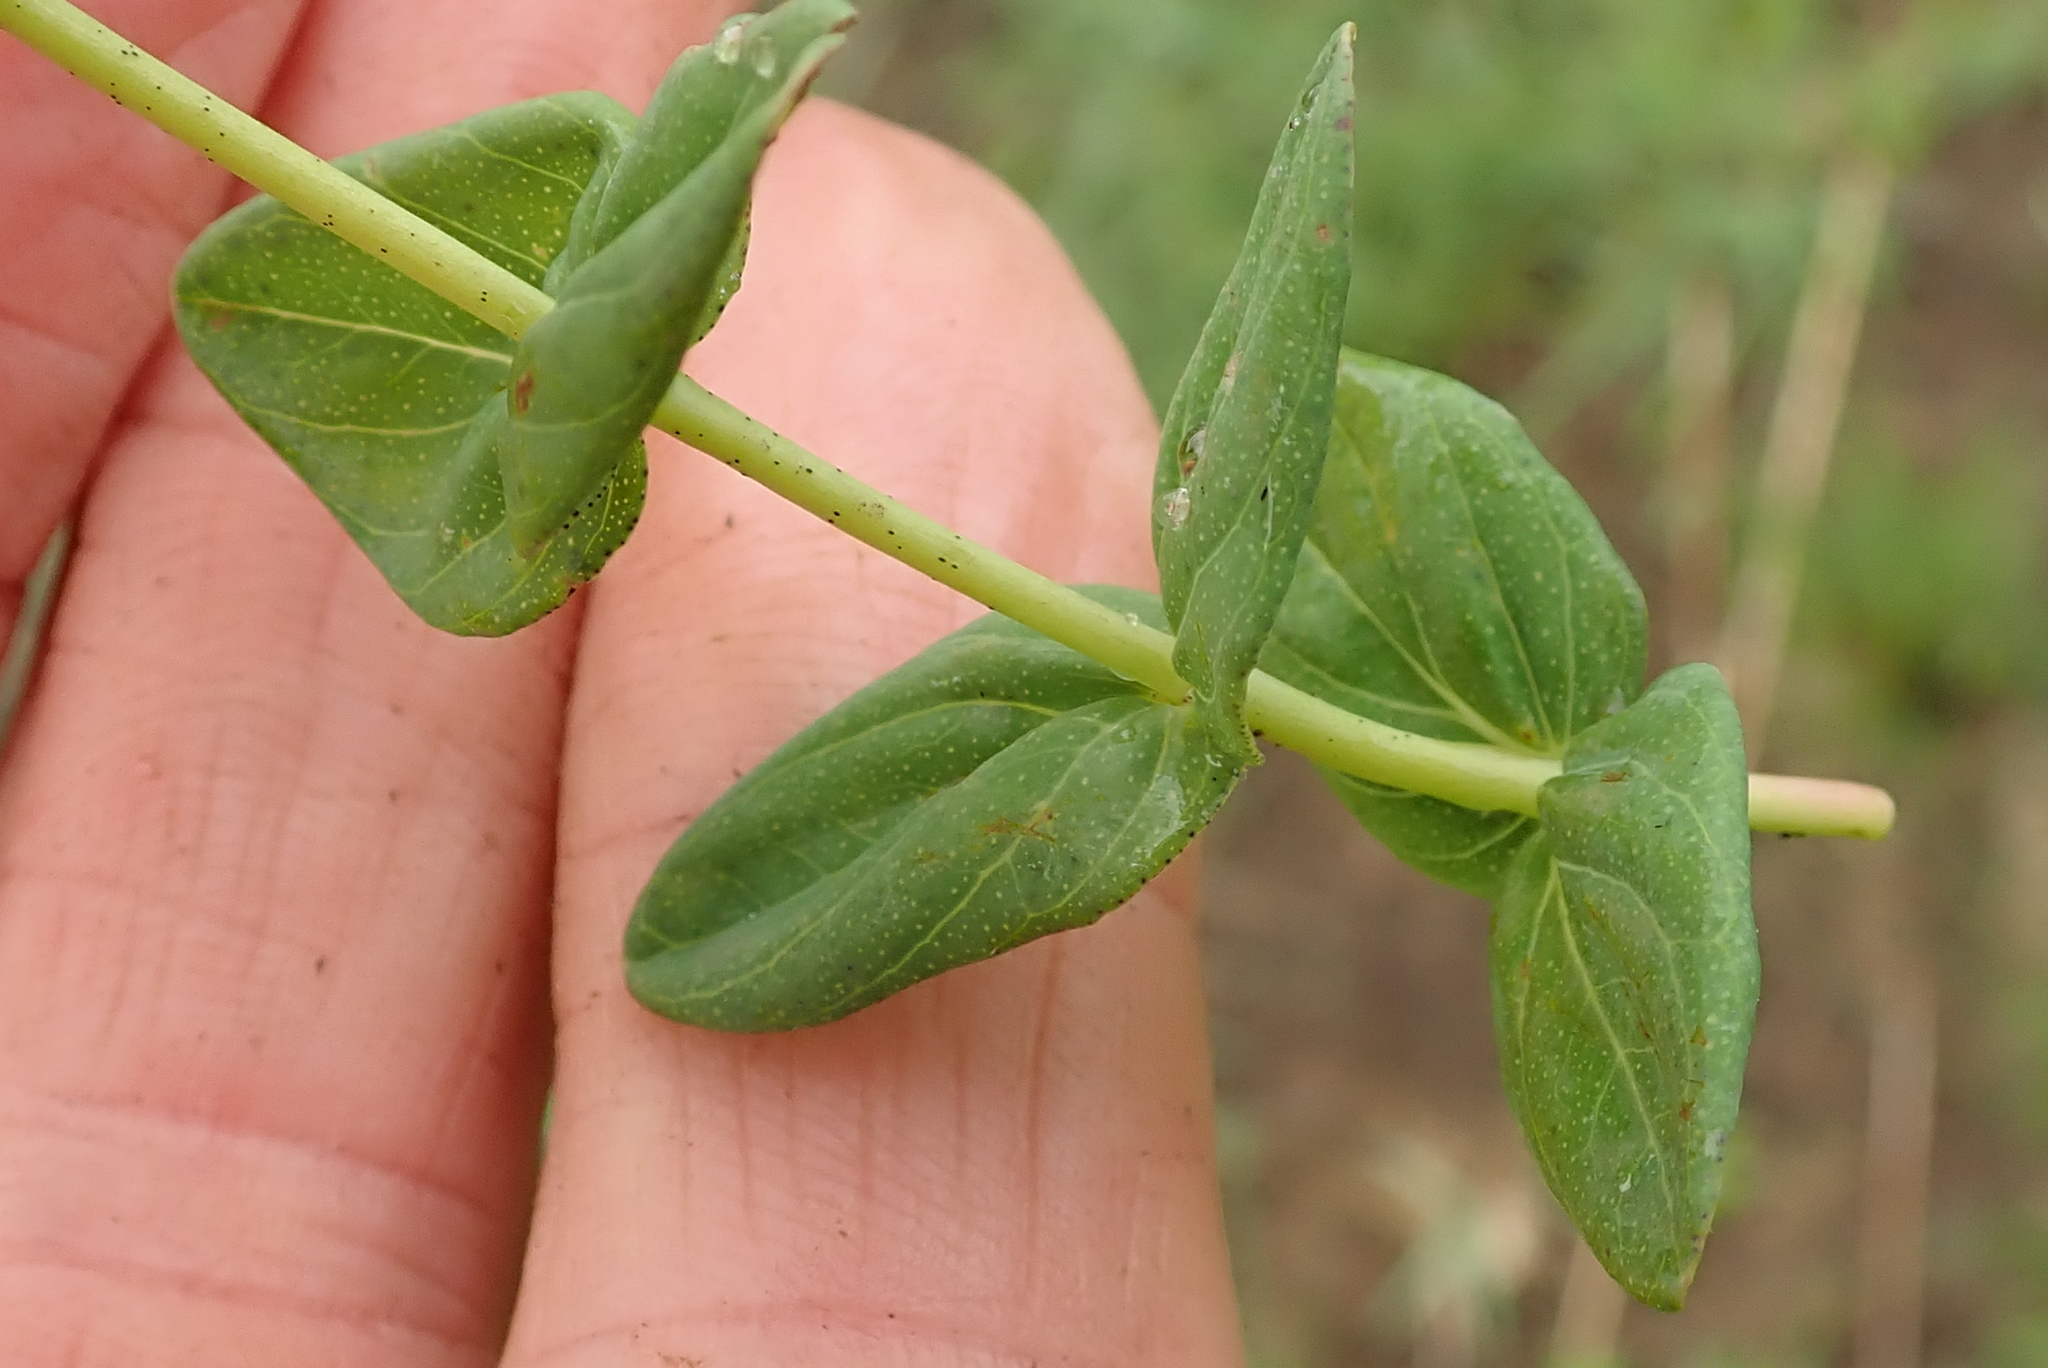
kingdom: Plantae
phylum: Tracheophyta
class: Magnoliopsida
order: Malpighiales
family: Hypericaceae
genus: Hypericum
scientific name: Hypericum aethiopicum
